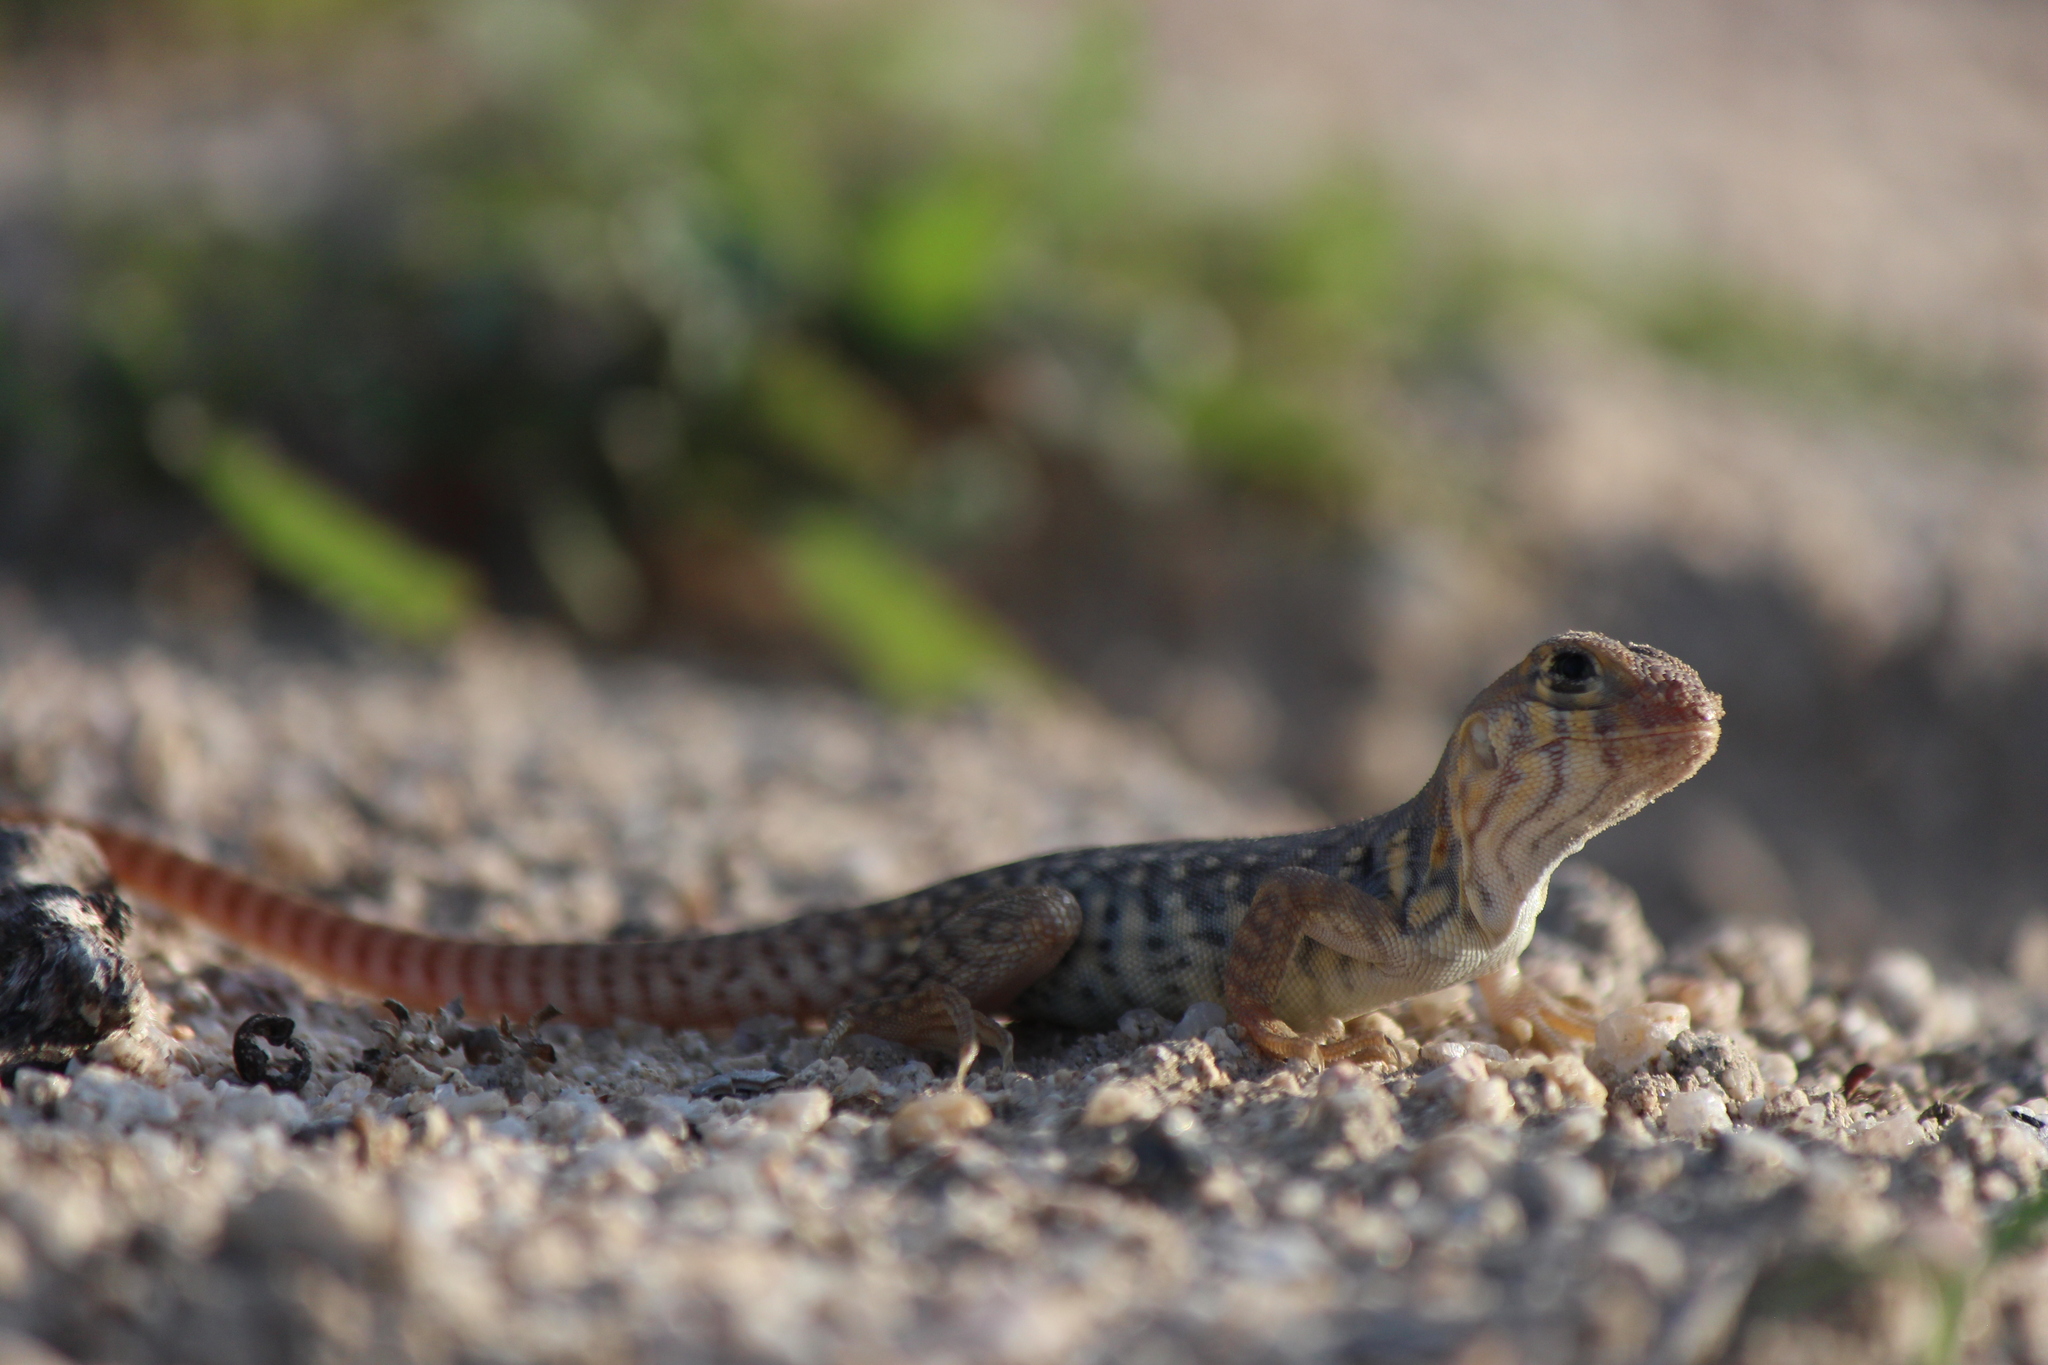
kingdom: Animalia
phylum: Chordata
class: Squamata
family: Iguanidae
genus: Dipsosaurus
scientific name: Dipsosaurus dorsalis
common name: Desert iguana
